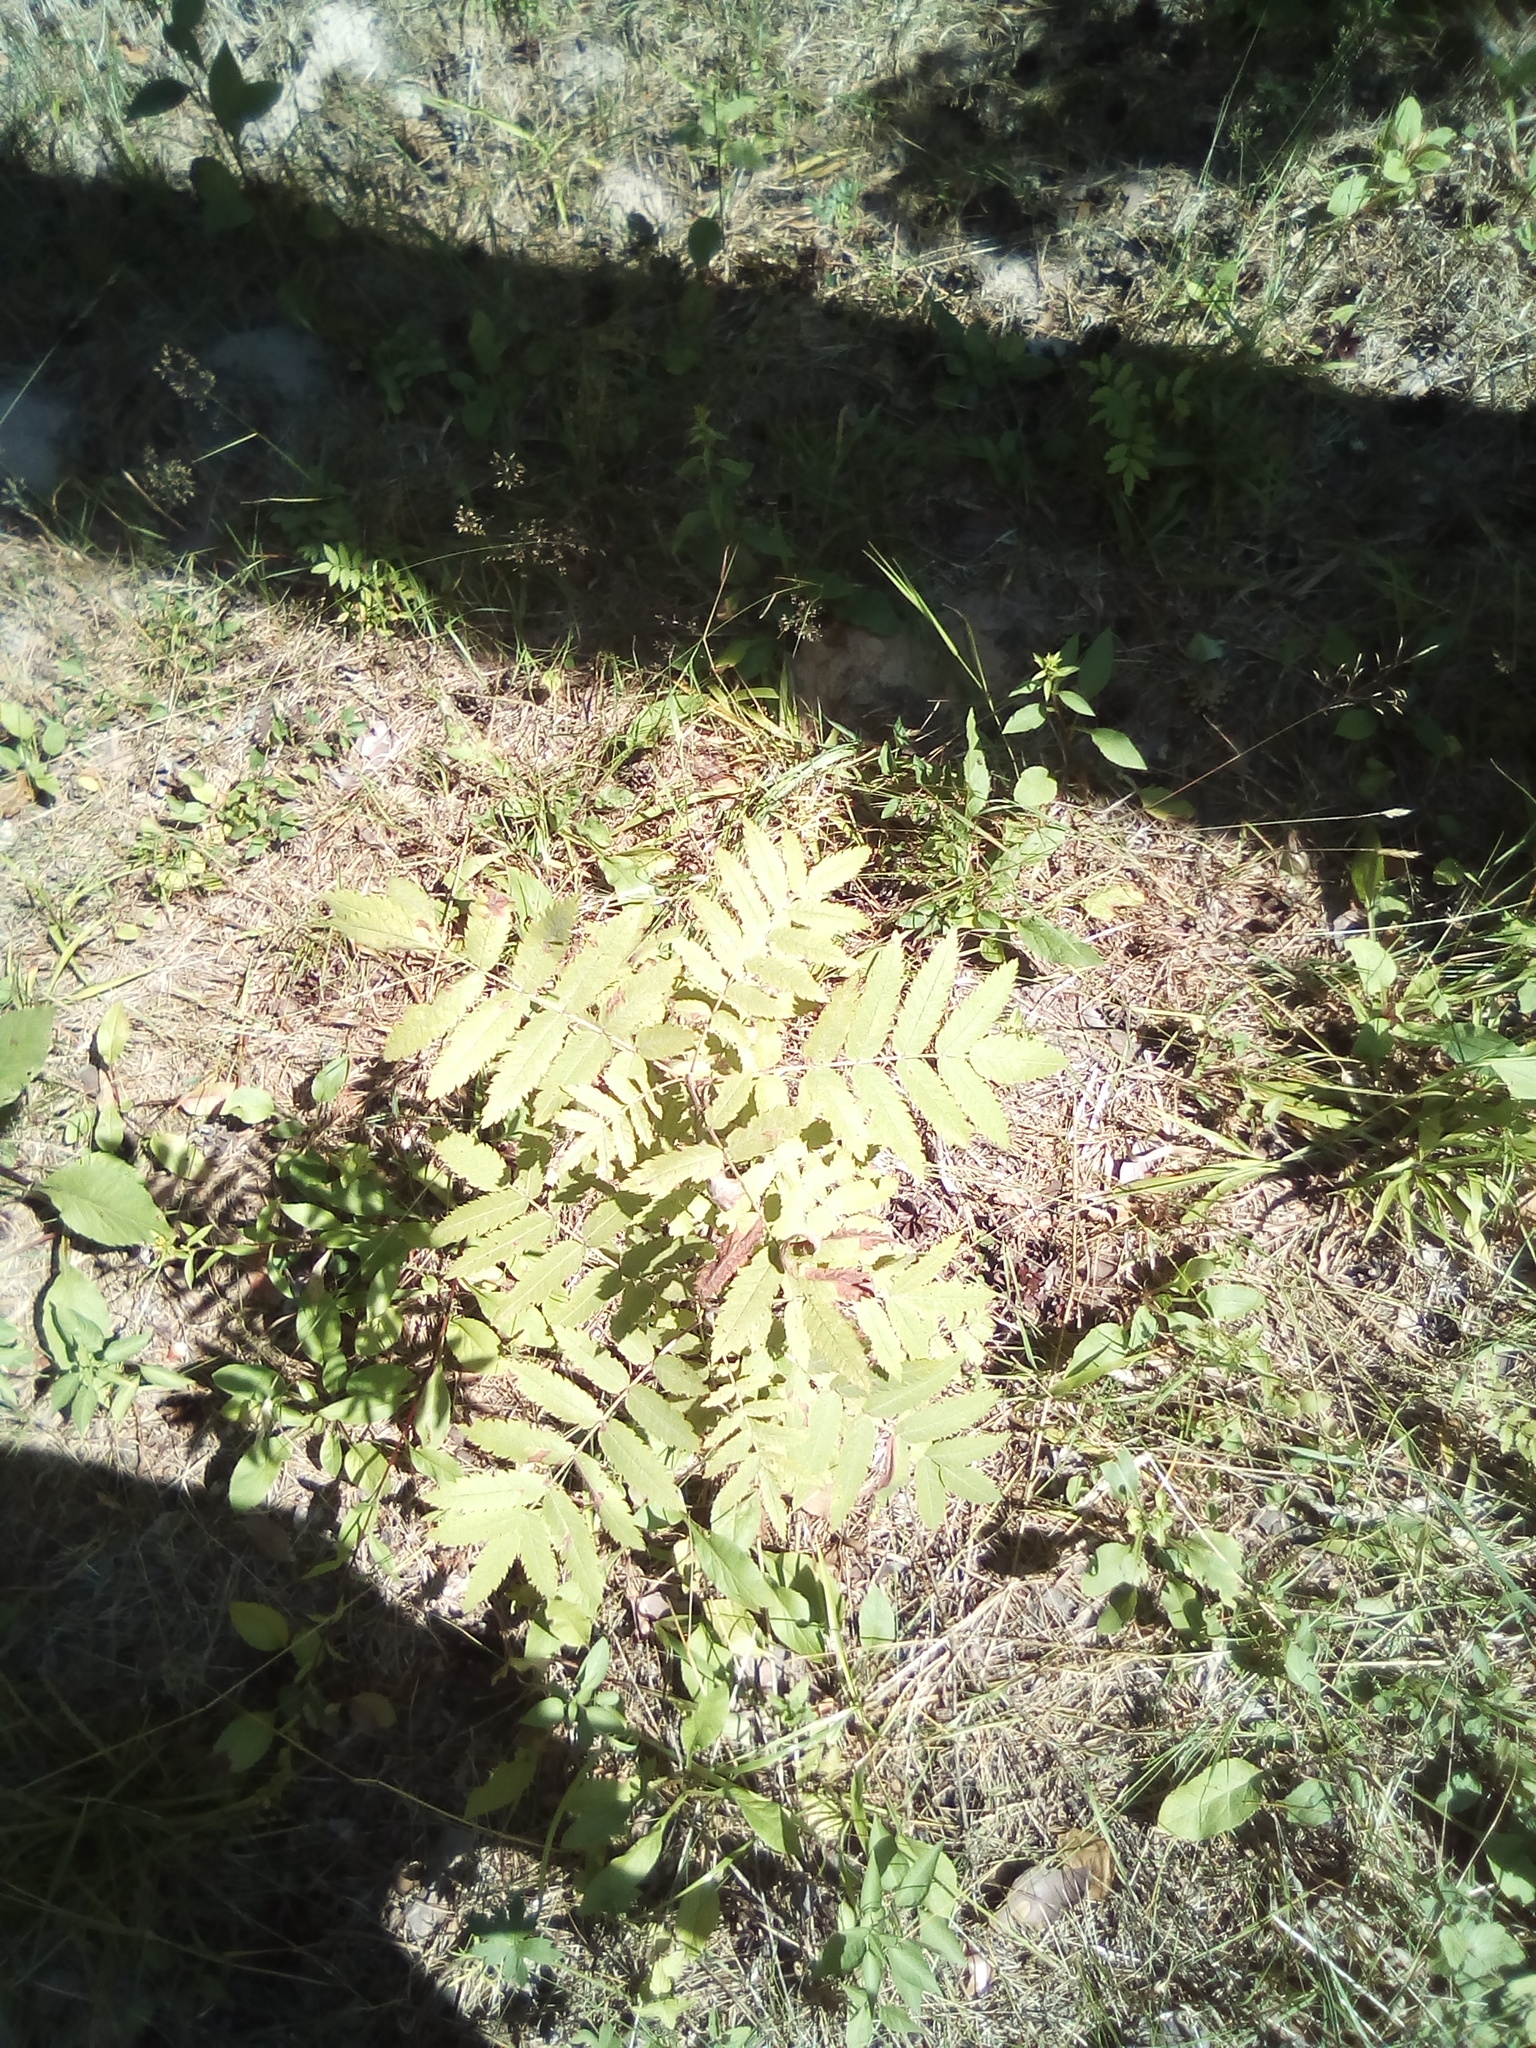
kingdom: Plantae
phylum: Tracheophyta
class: Magnoliopsida
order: Rosales
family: Rosaceae
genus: Sorbus
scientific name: Sorbus aucuparia
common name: Rowan
